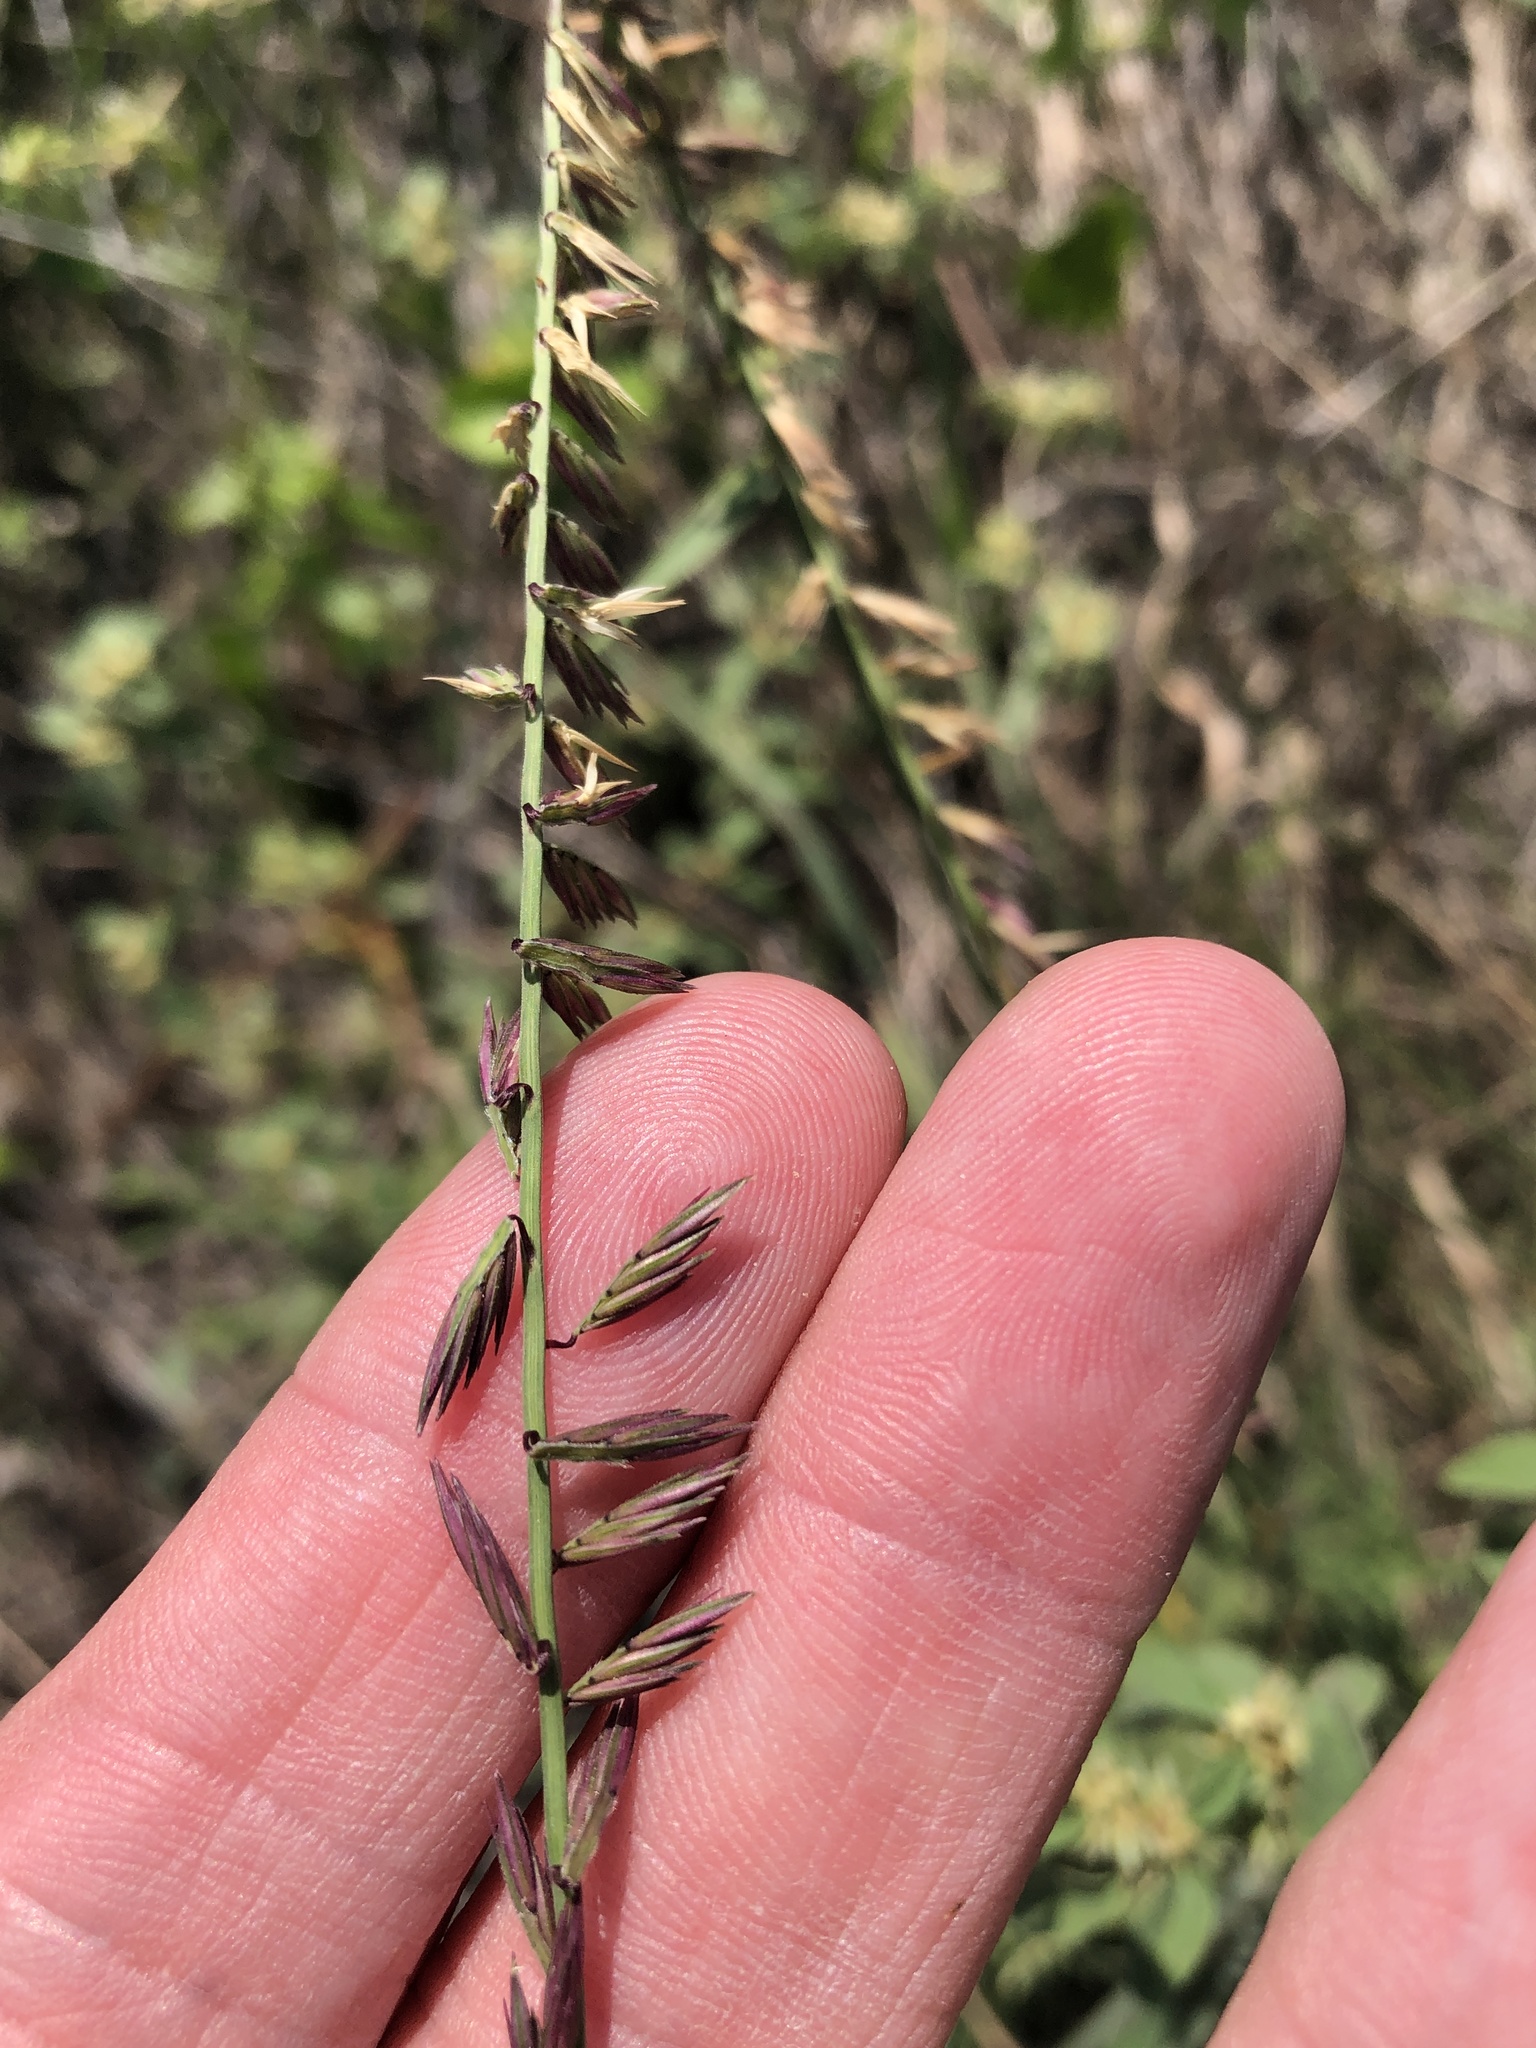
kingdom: Plantae
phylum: Tracheophyta
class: Liliopsida
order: Poales
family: Poaceae
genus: Bouteloua
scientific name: Bouteloua curtipendula
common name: Side-oats grama
